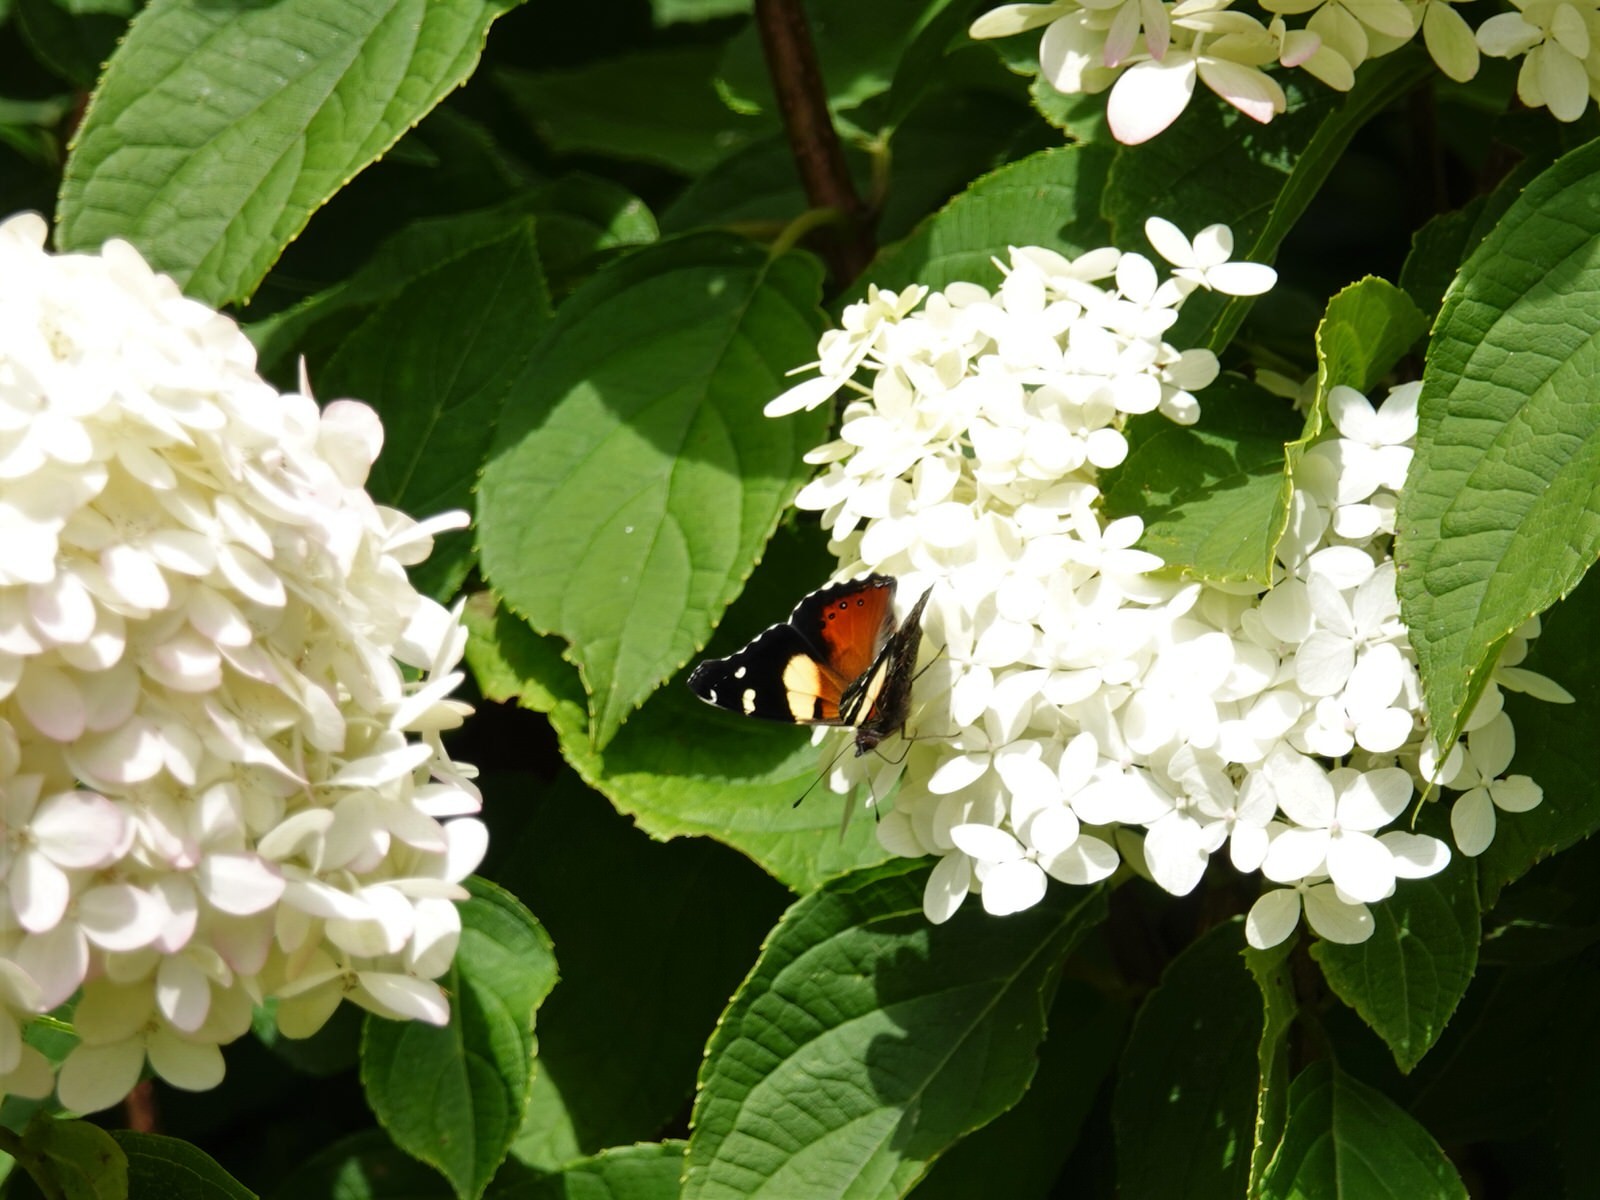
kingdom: Animalia
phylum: Arthropoda
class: Insecta
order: Lepidoptera
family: Nymphalidae
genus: Vanessa
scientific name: Vanessa itea
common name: Yellow admiral
